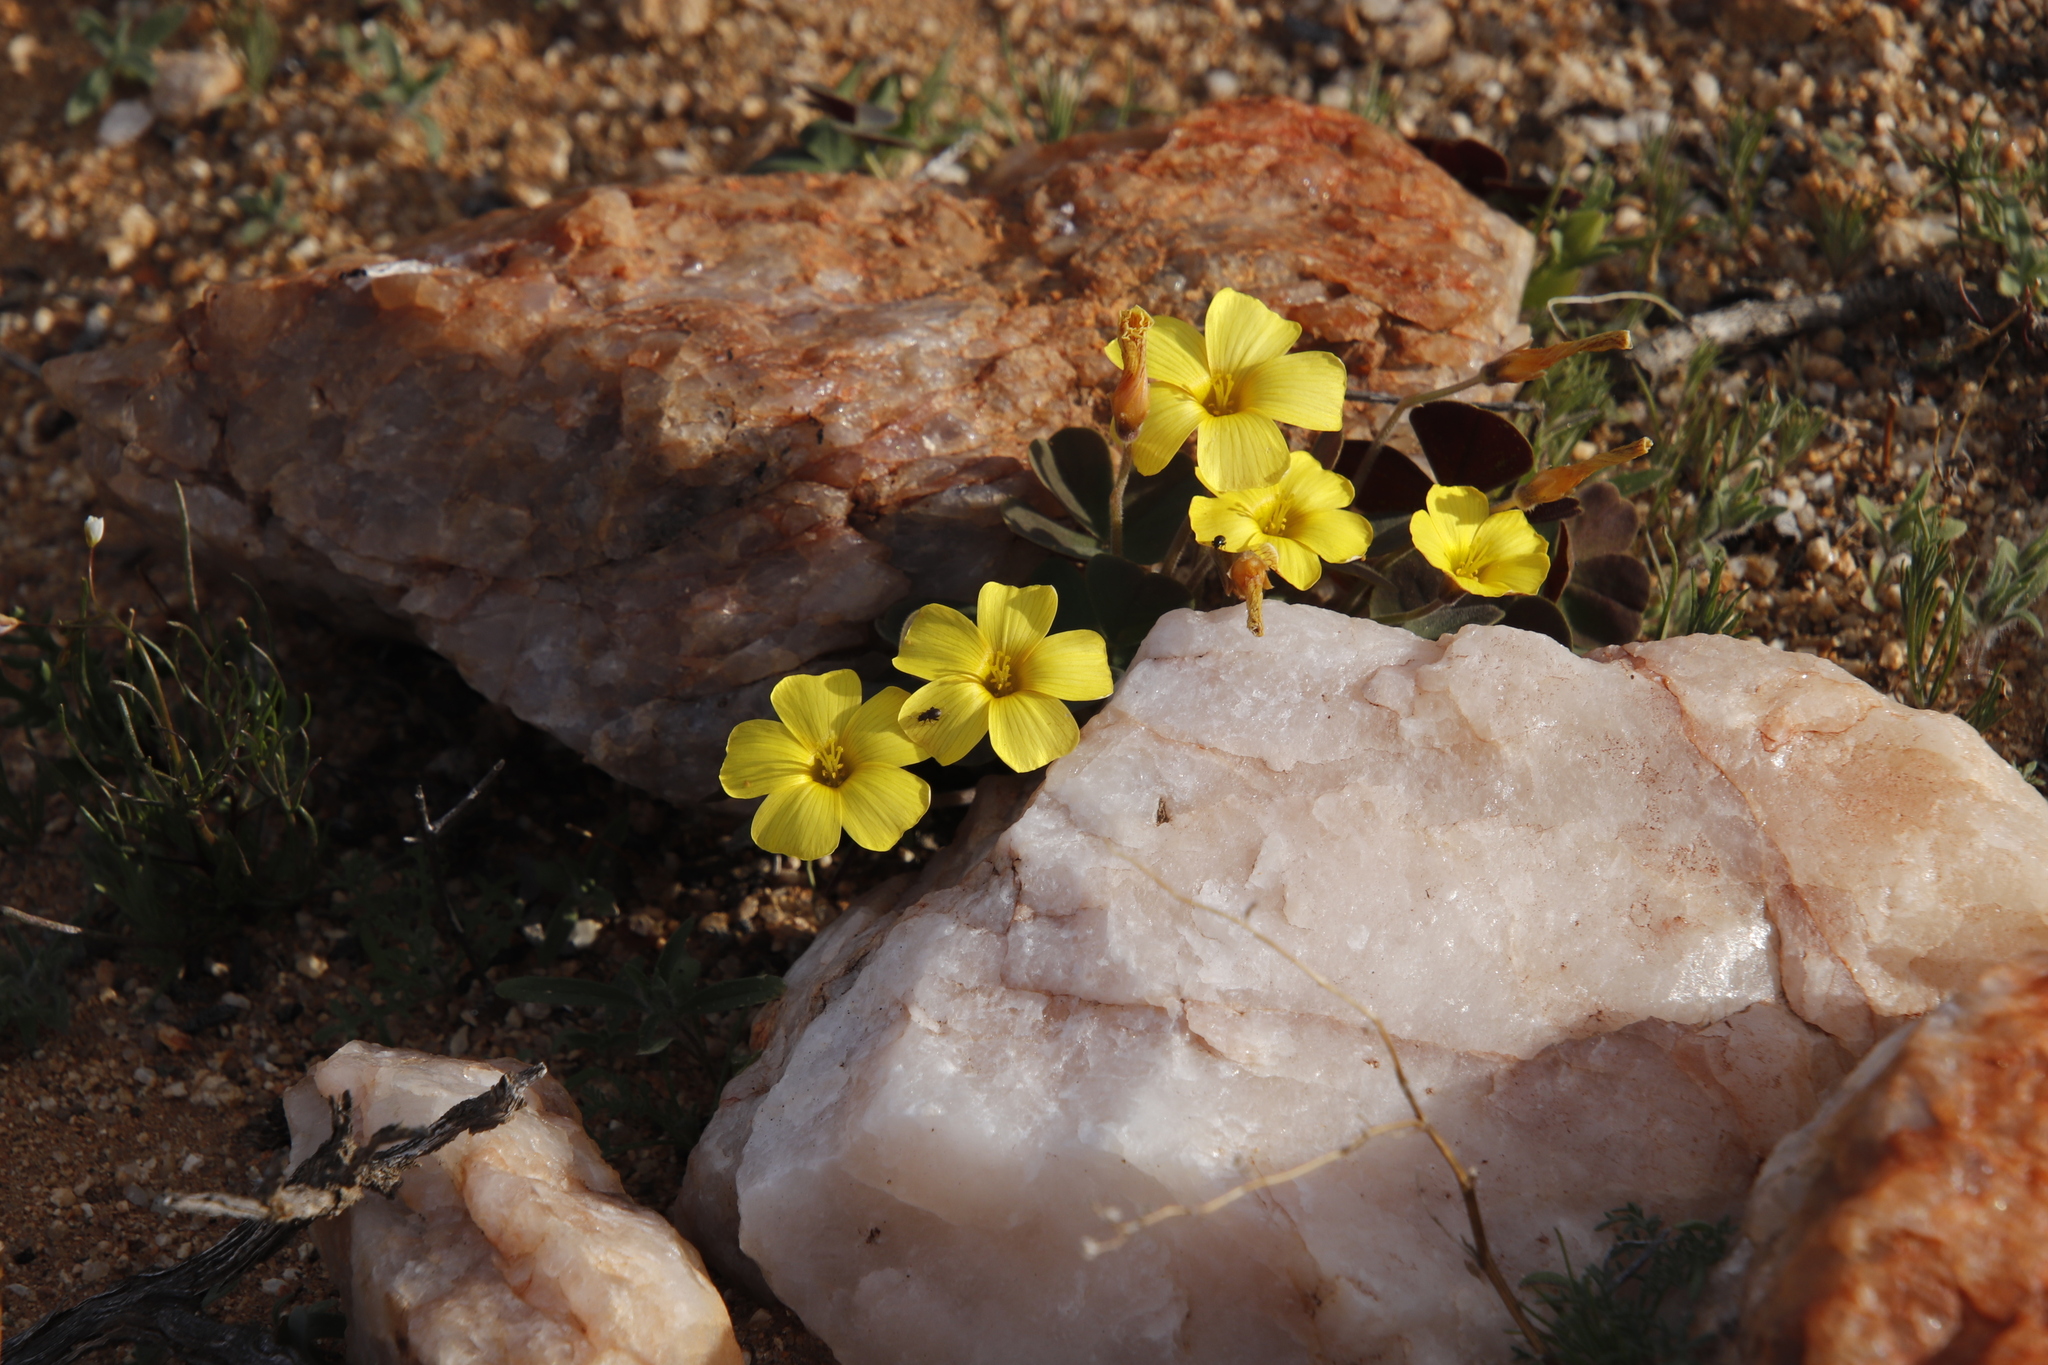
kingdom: Plantae
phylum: Tracheophyta
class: Magnoliopsida
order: Oxalidales
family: Oxalidaceae
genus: Oxalis
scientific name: Oxalis obtusa
